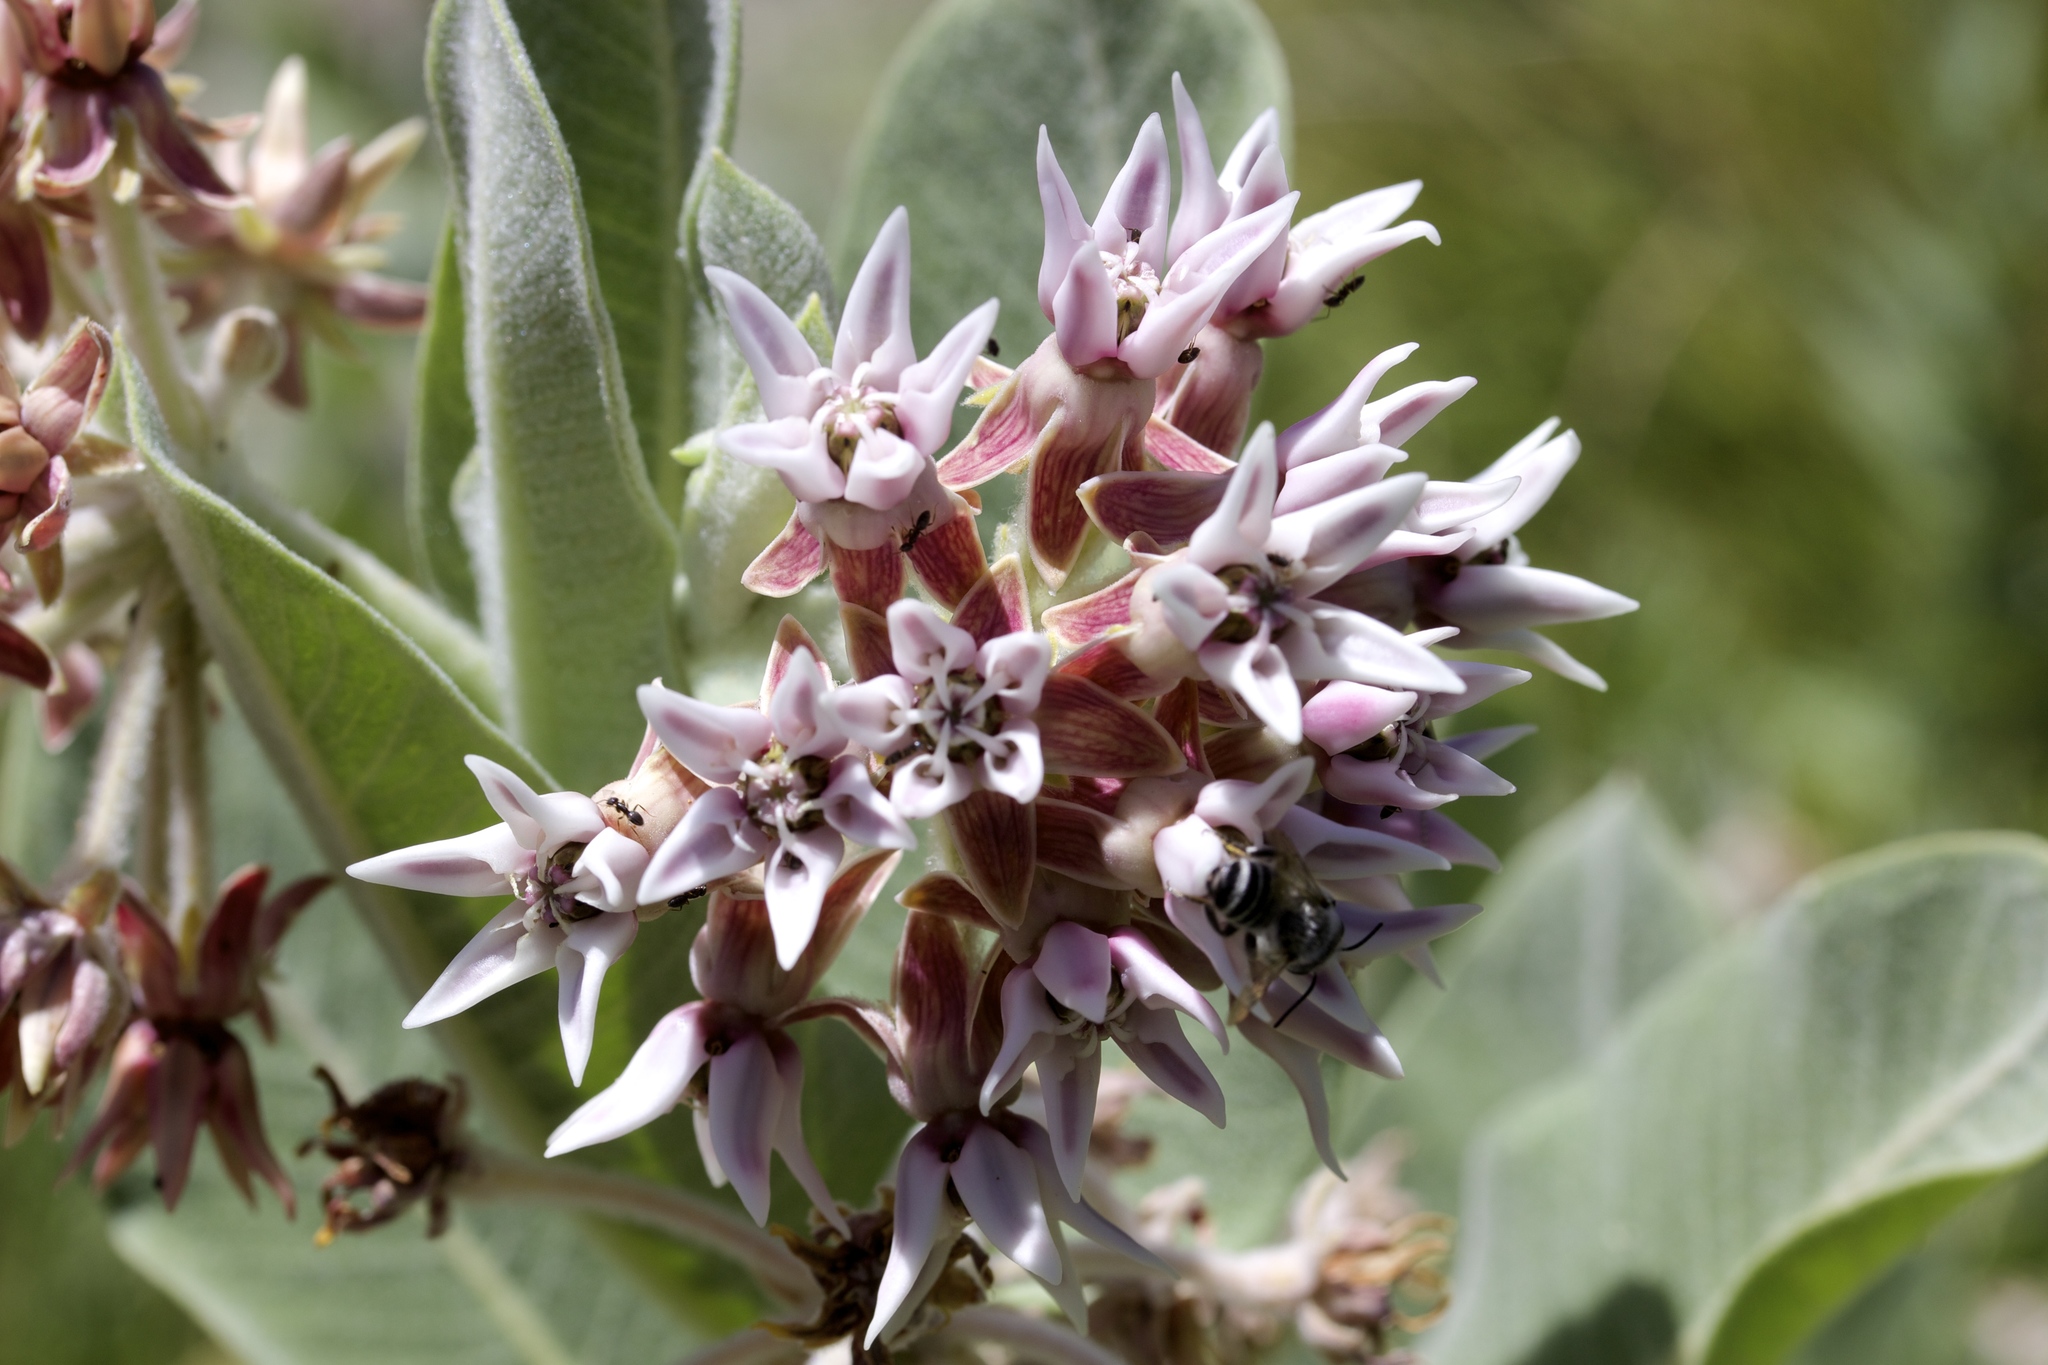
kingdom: Plantae
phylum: Tracheophyta
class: Magnoliopsida
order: Gentianales
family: Apocynaceae
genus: Asclepias
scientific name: Asclepias speciosa
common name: Showy milkweed
